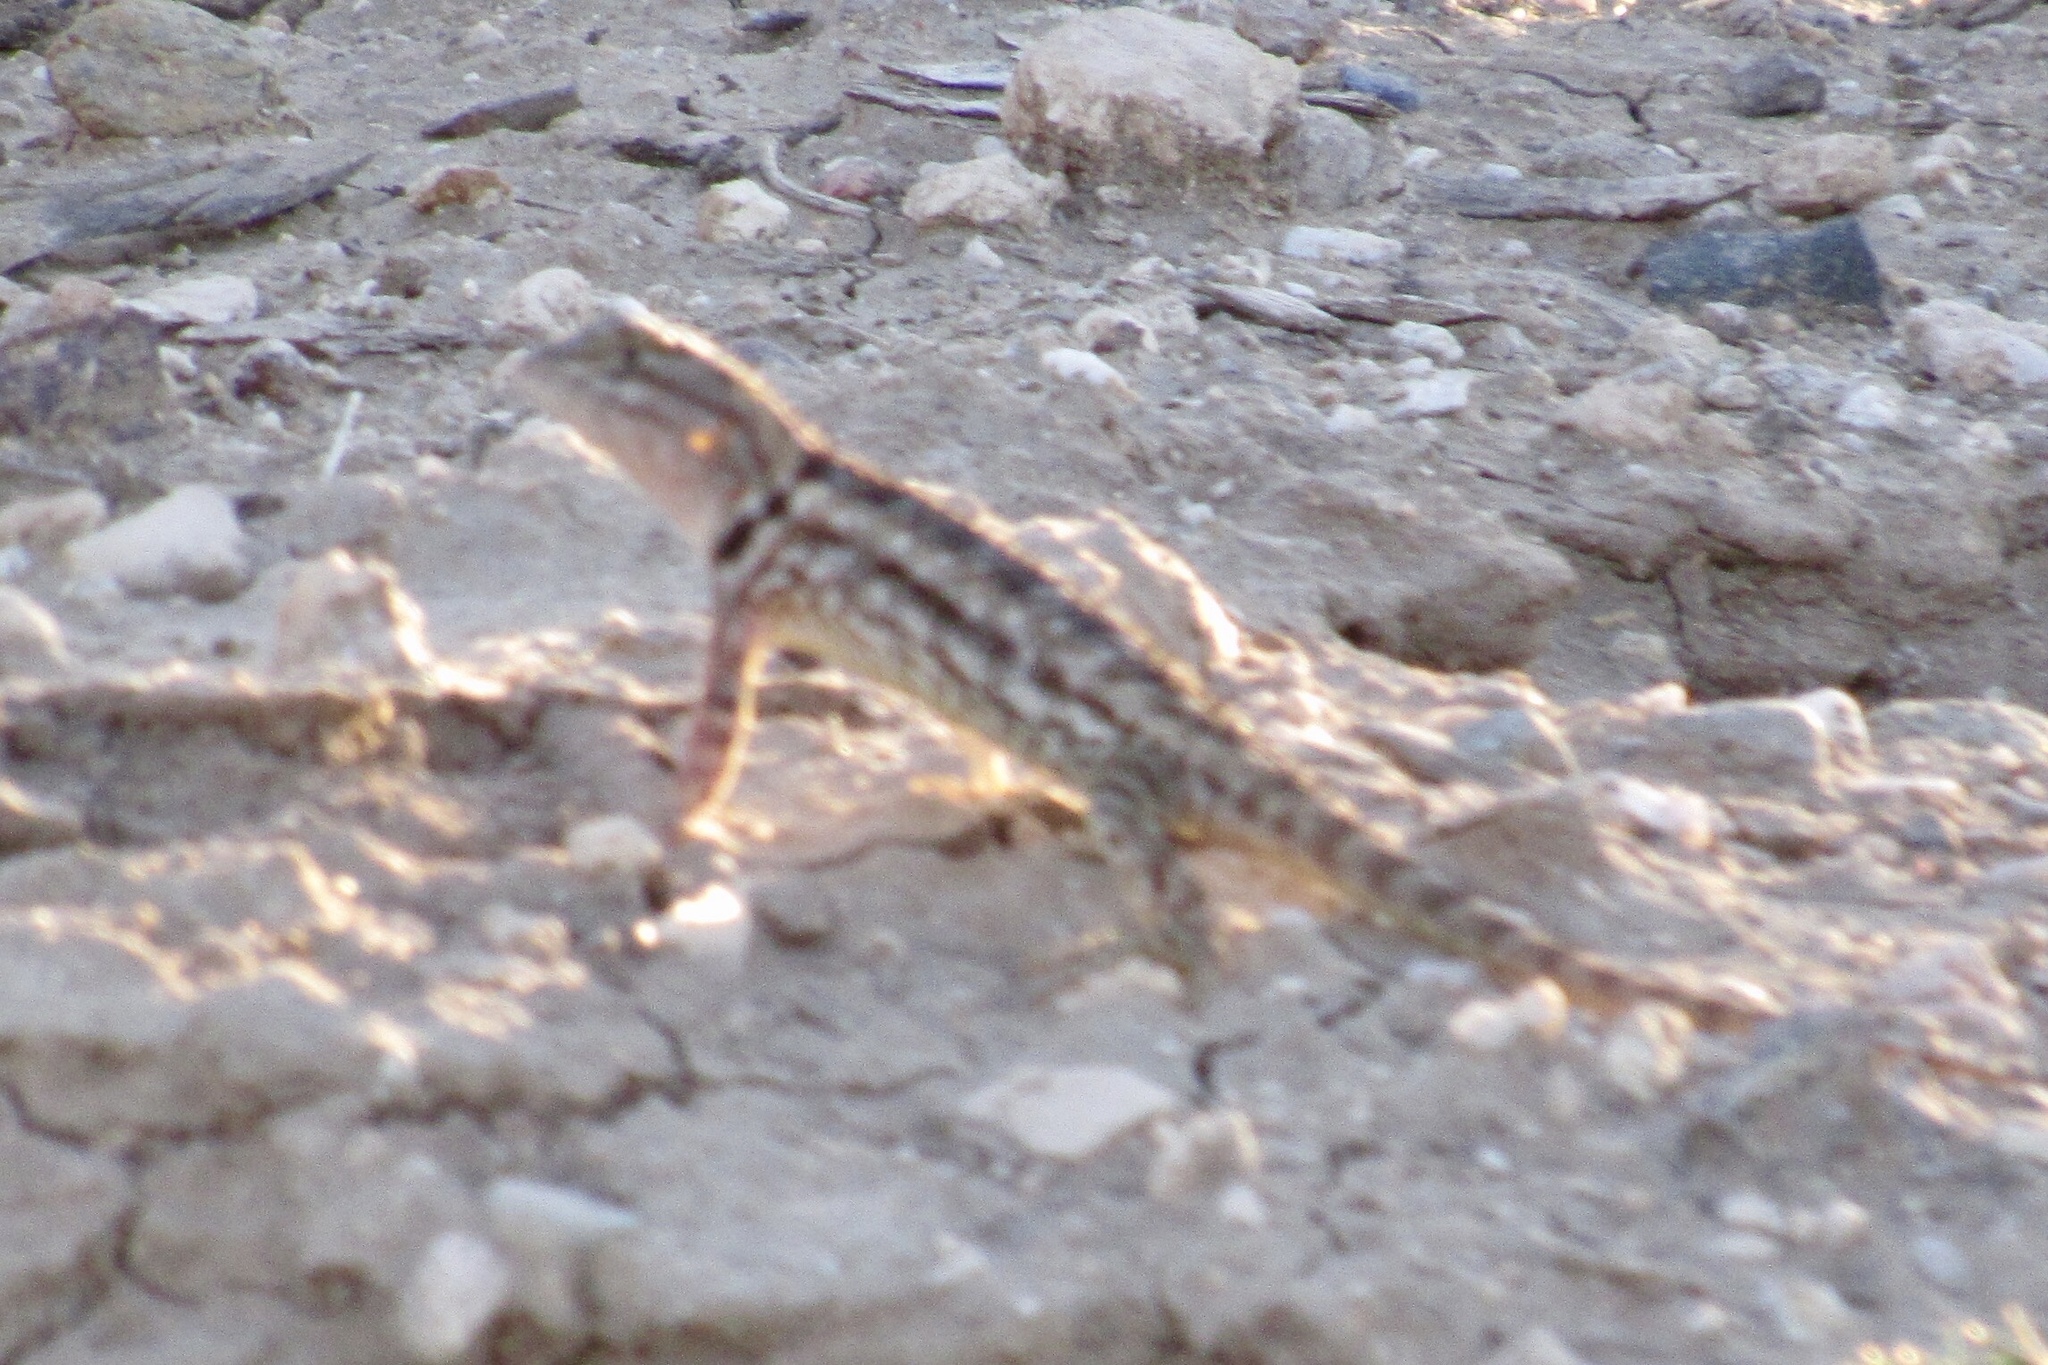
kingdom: Animalia
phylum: Chordata
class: Squamata
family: Phrynosomatidae
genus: Sceloporus
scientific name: Sceloporus magister
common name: Desert spiny lizard
